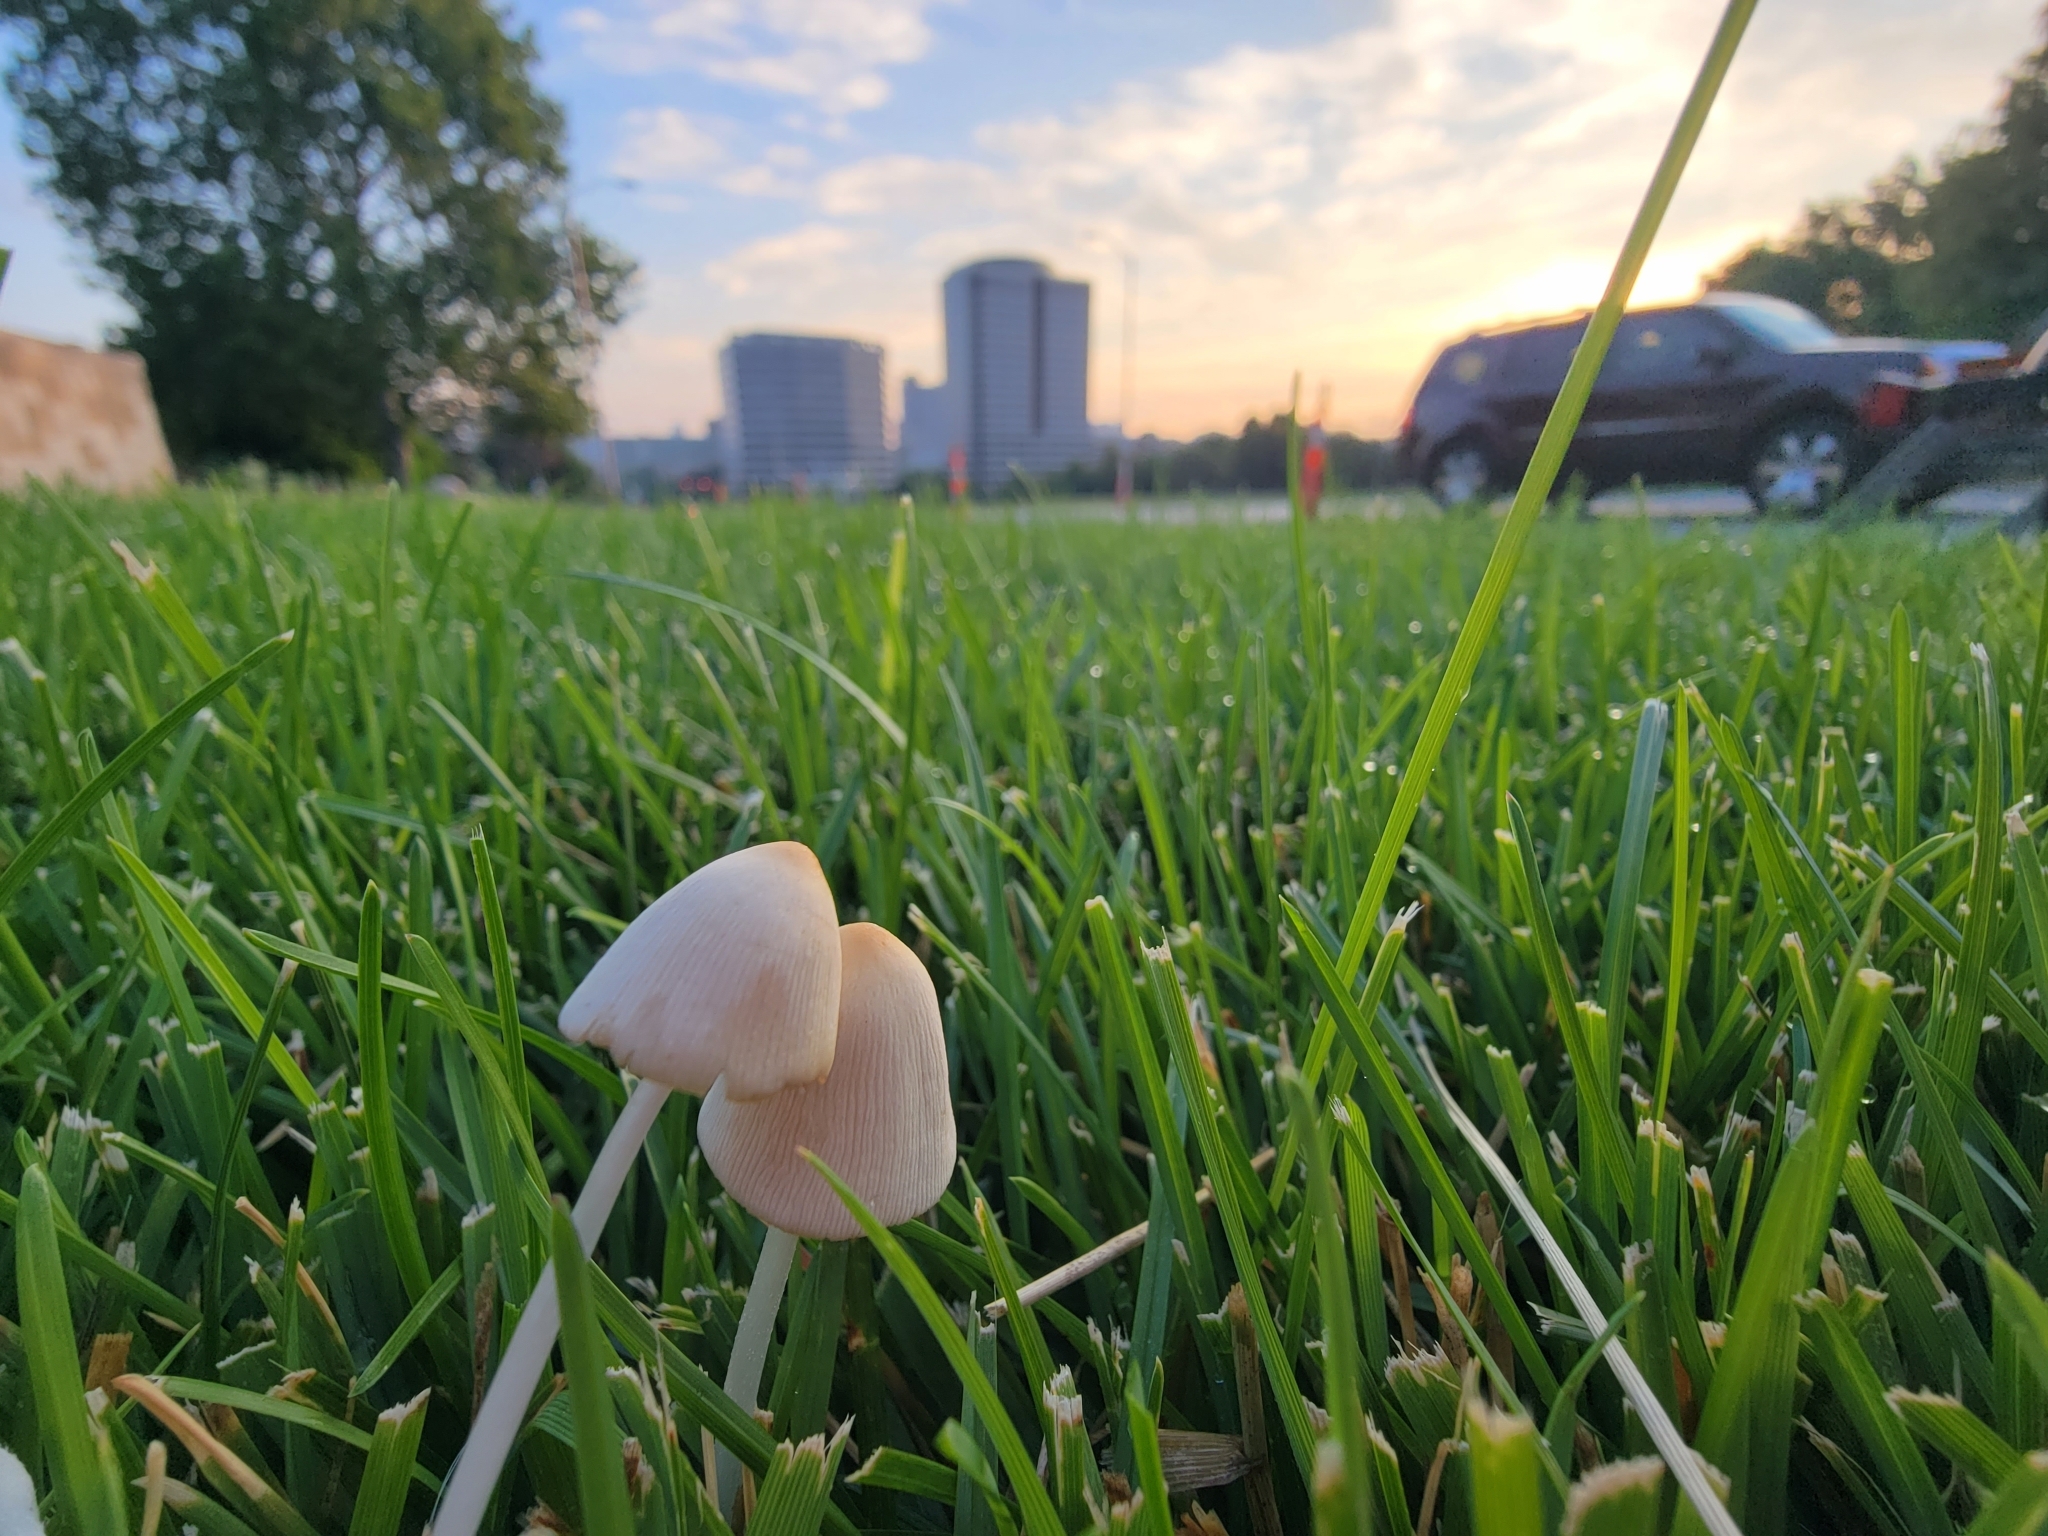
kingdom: Fungi
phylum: Basidiomycota
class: Agaricomycetes
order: Agaricales
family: Bolbitiaceae
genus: Conocybe
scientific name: Conocybe apala
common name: Milky conecap
